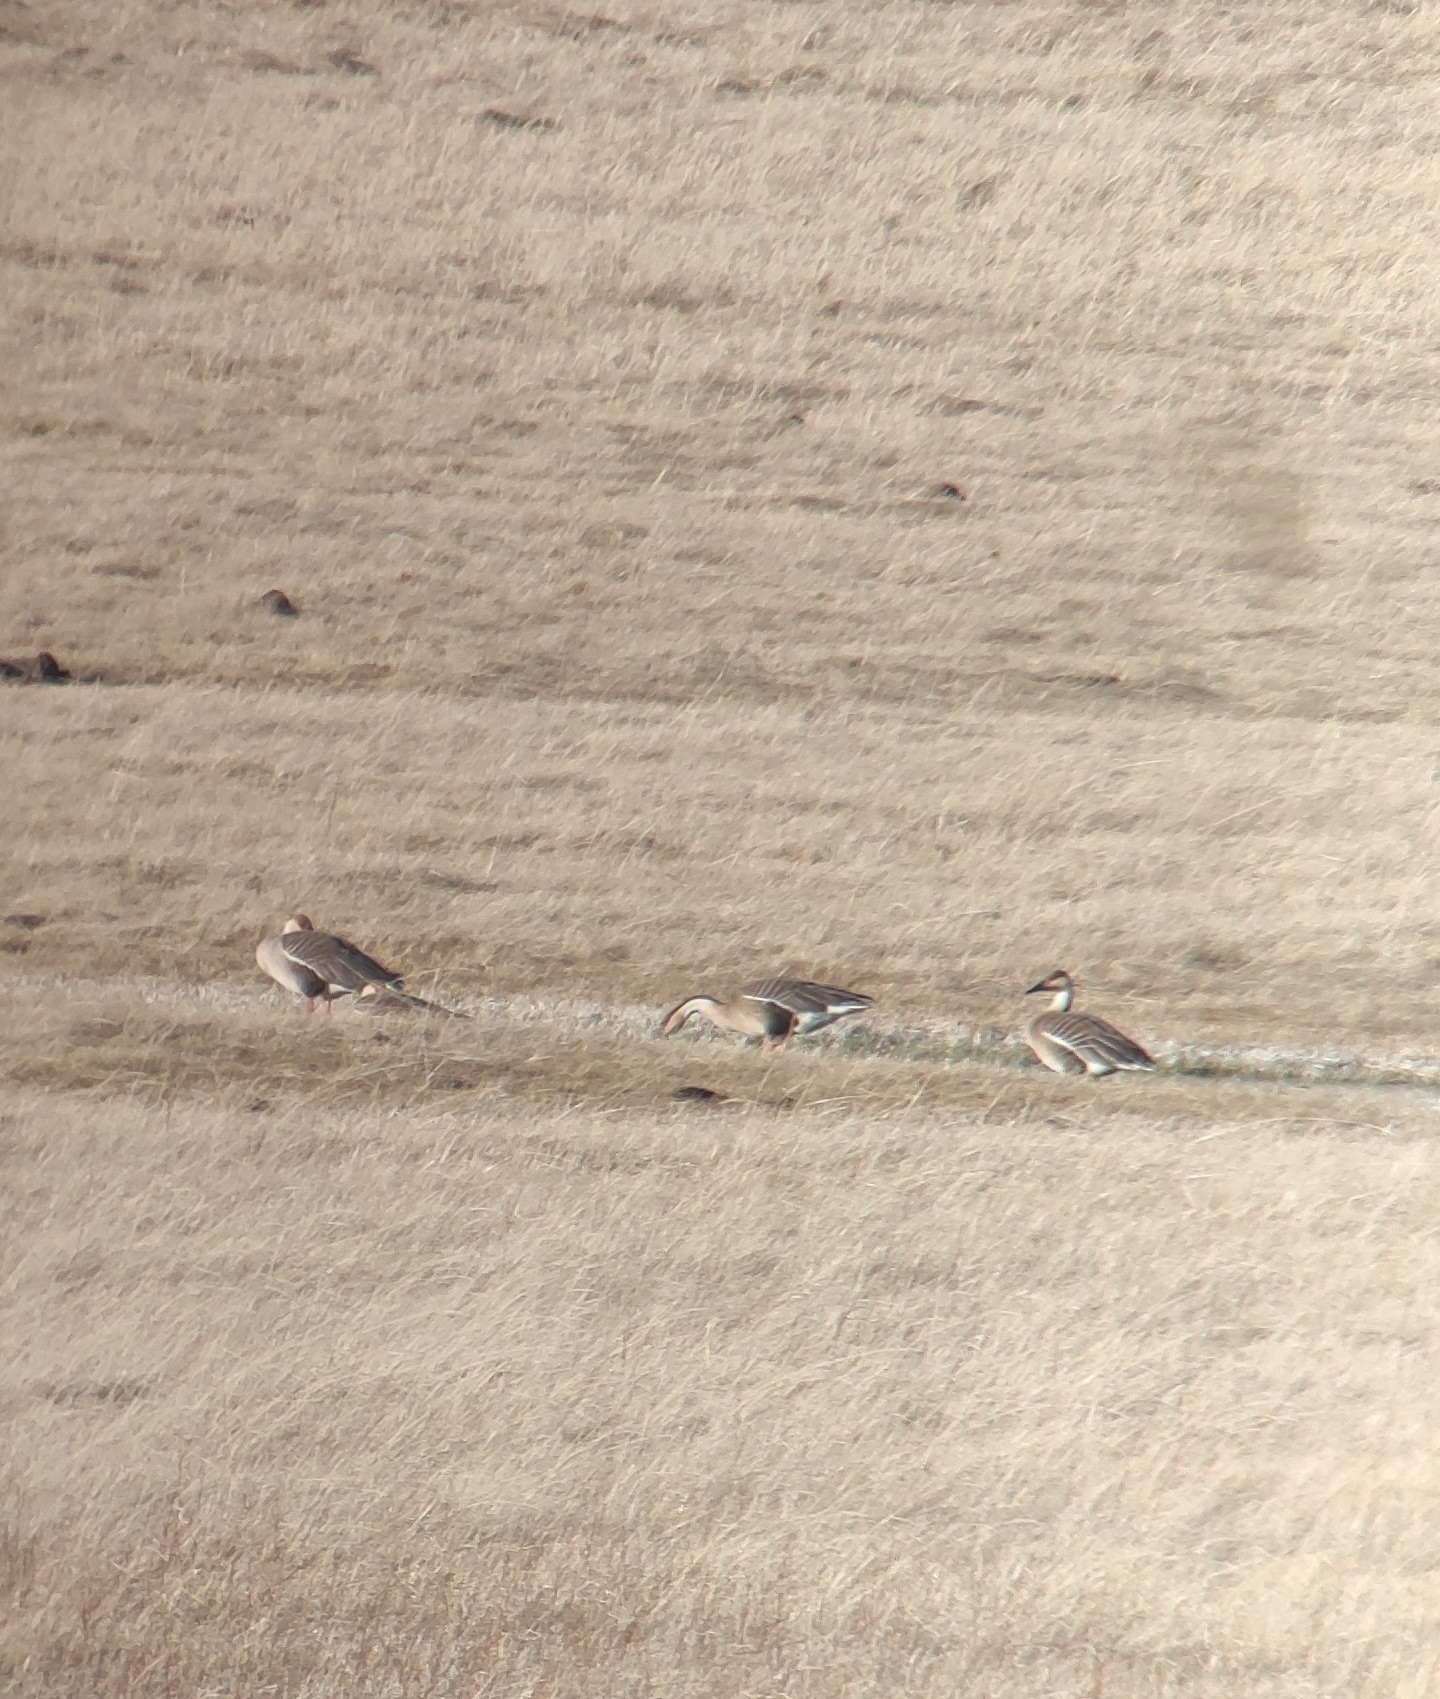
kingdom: Animalia
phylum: Chordata
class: Aves
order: Anseriformes
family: Anatidae
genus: Anser
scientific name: Anser cygnoides
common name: Swan goose
